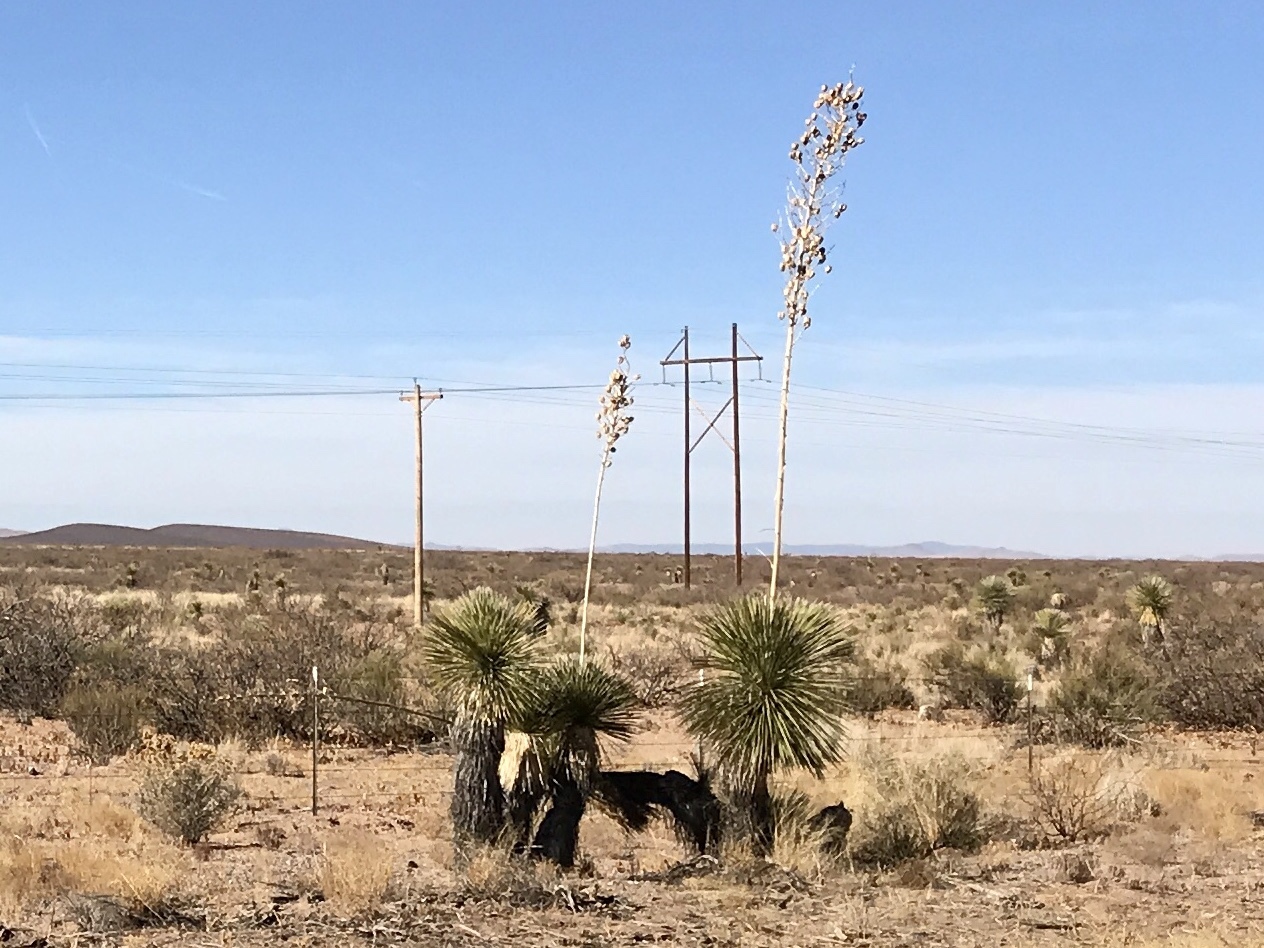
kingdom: Plantae
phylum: Tracheophyta
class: Liliopsida
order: Asparagales
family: Asparagaceae
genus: Yucca
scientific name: Yucca elata
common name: Palmella
